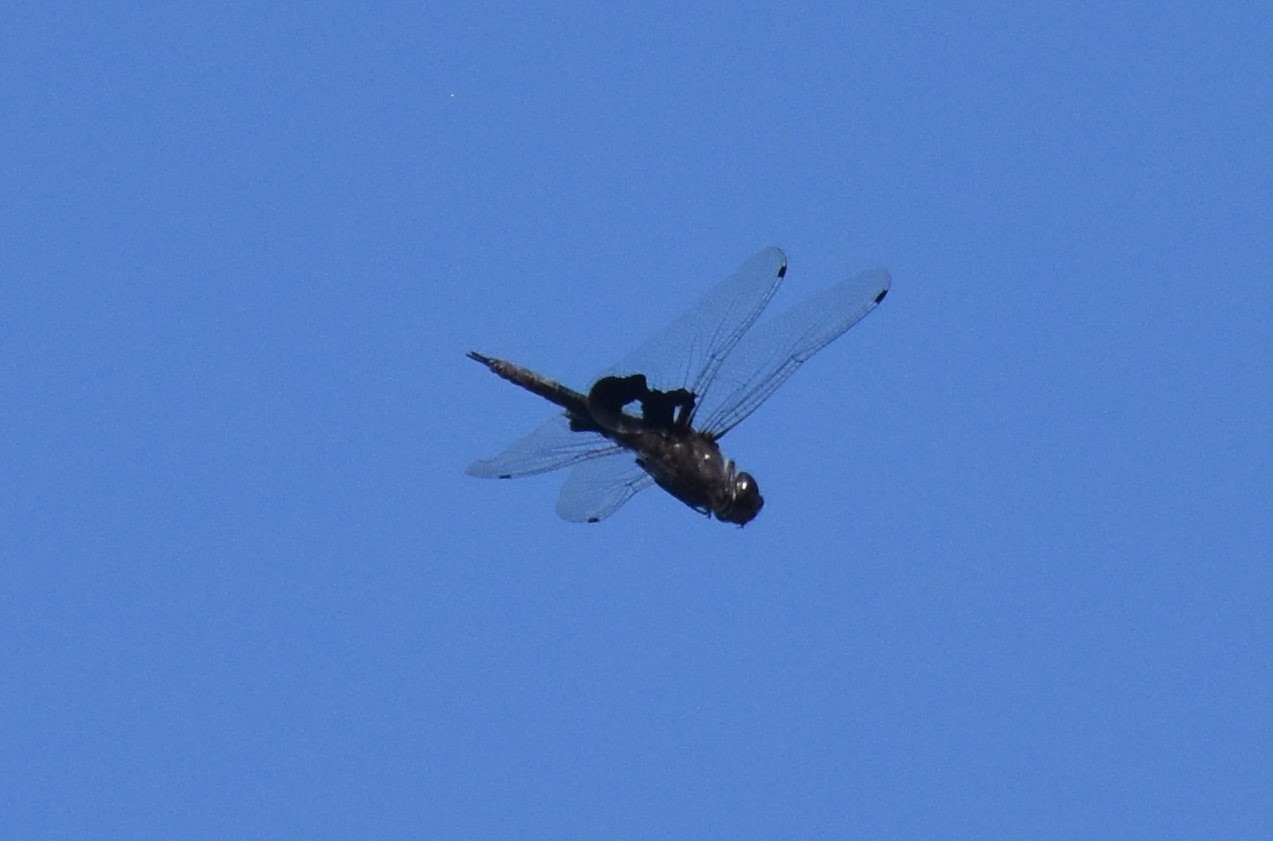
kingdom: Animalia
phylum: Arthropoda
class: Insecta
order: Odonata
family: Libellulidae
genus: Tramea
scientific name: Tramea lacerata
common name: Black saddlebags
